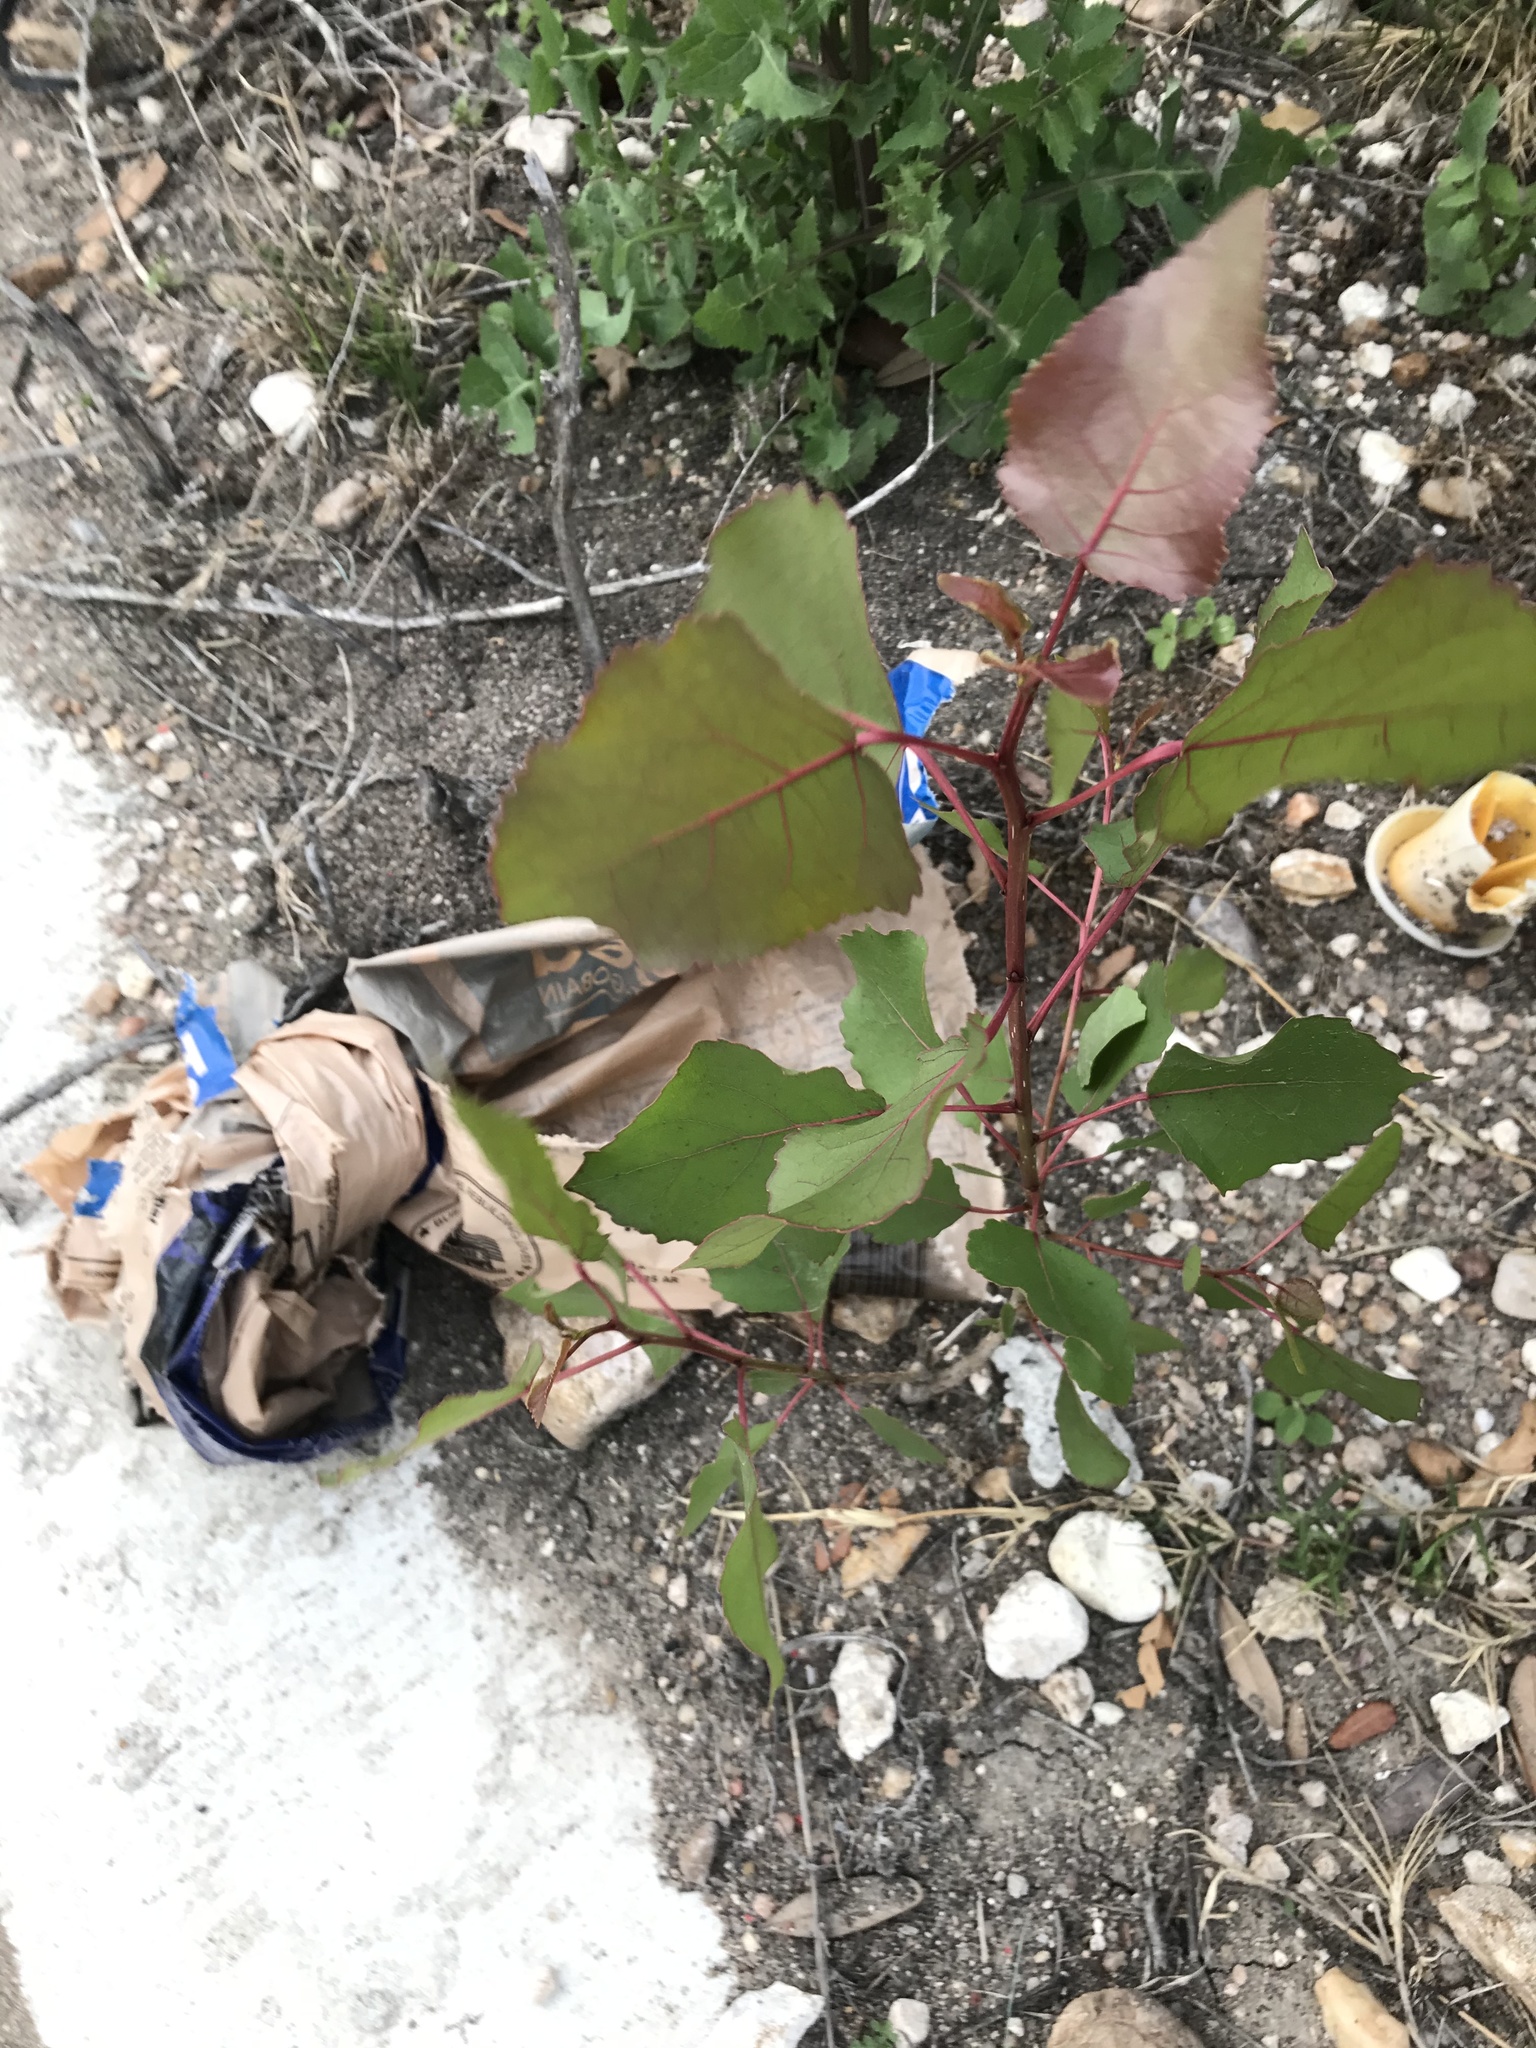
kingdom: Plantae
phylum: Tracheophyta
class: Magnoliopsida
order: Malpighiales
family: Salicaceae
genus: Populus
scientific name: Populus deltoides
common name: Eastern cottonwood
